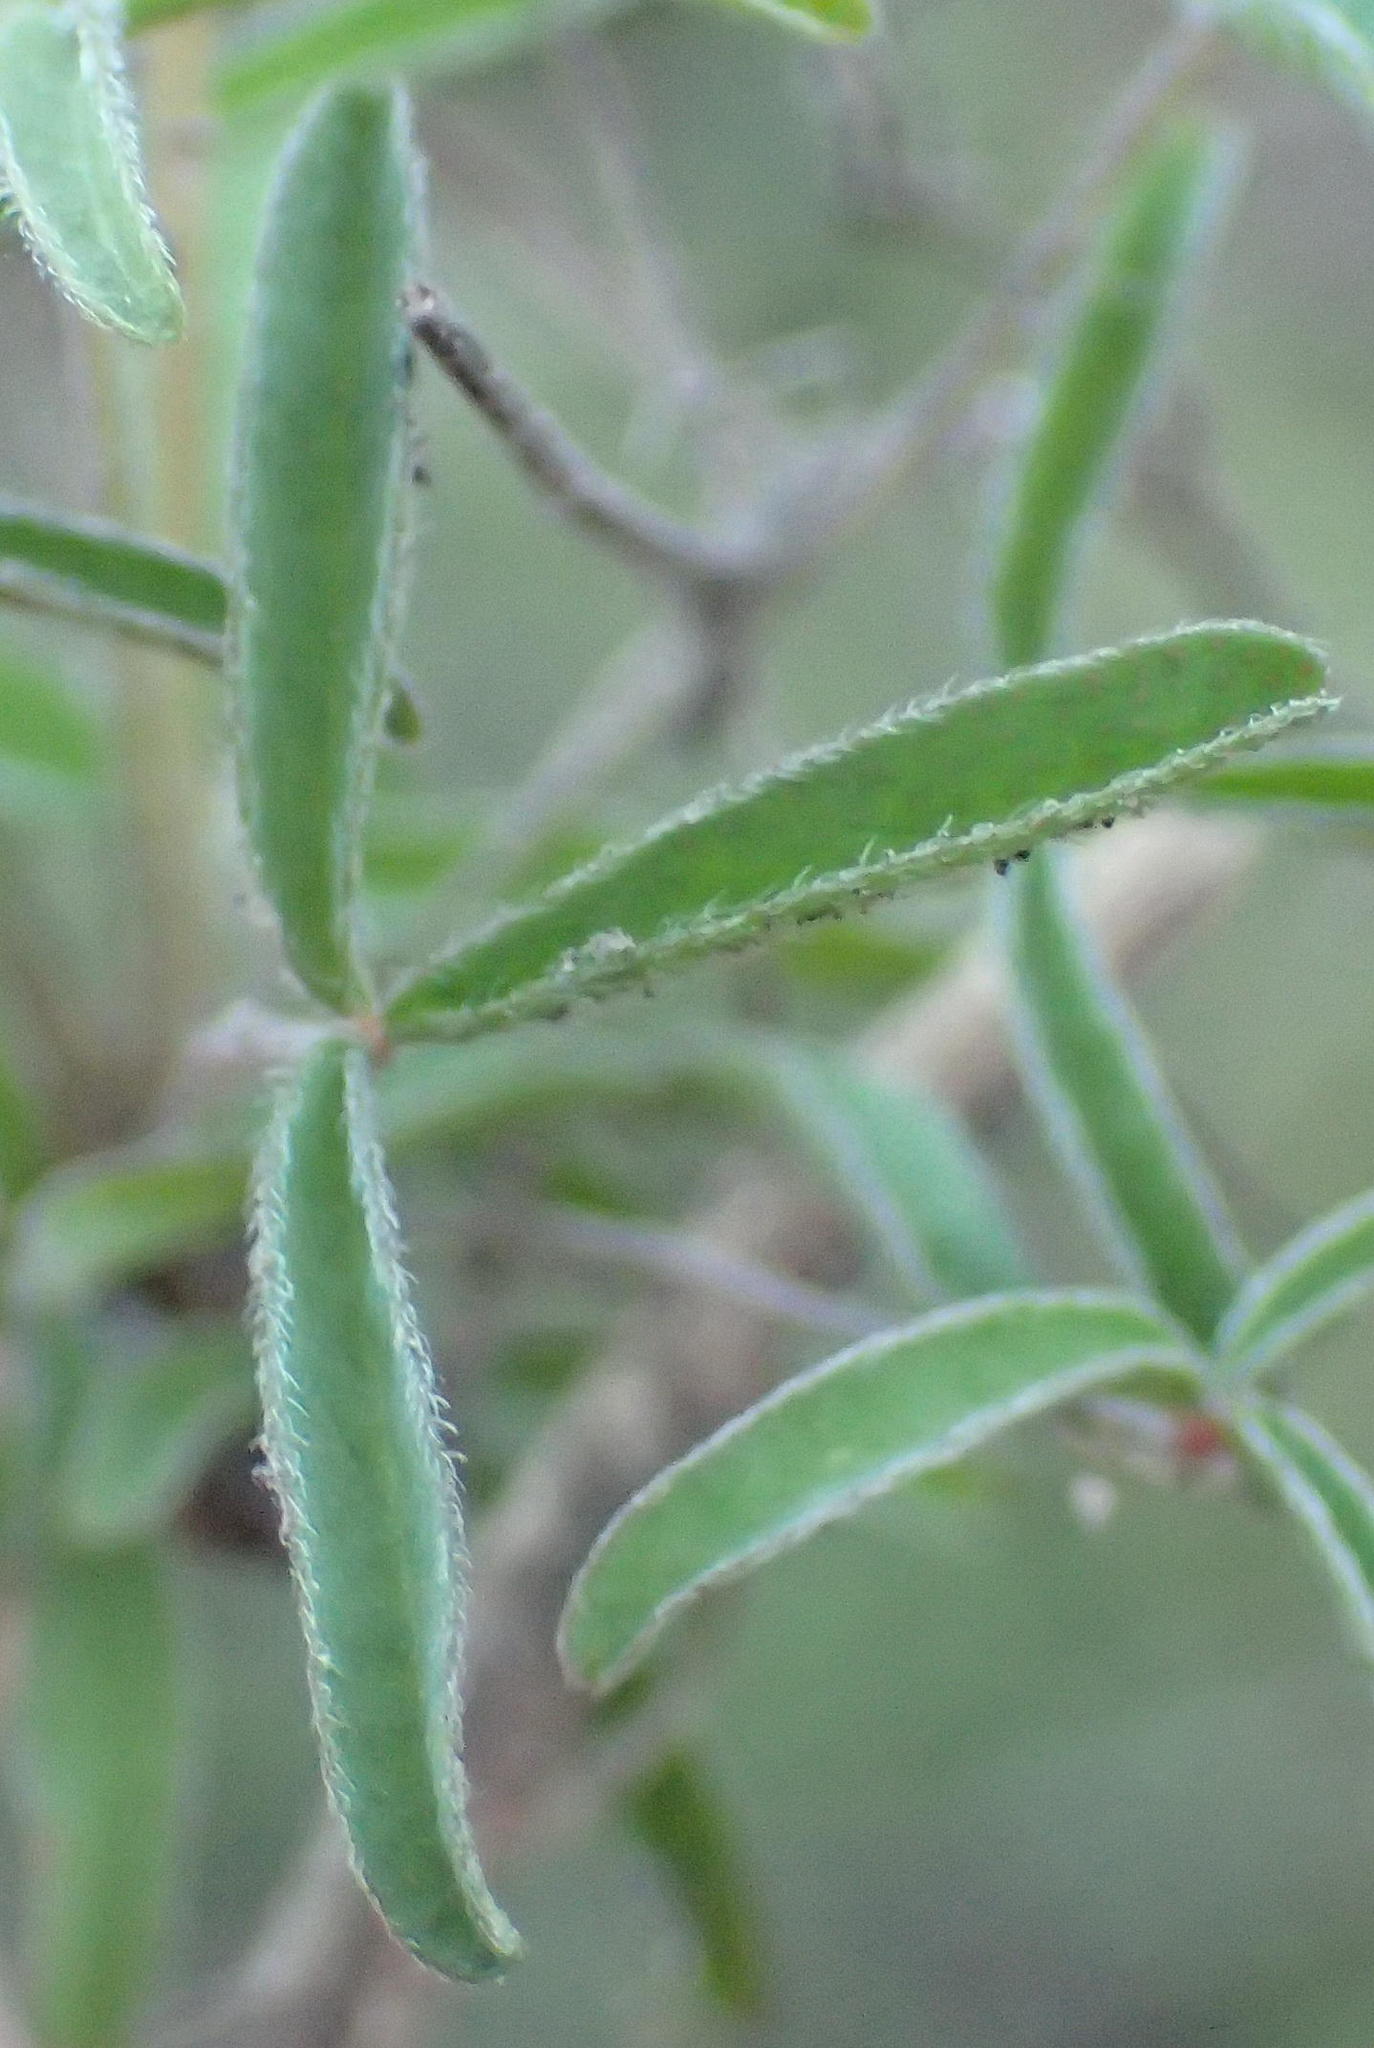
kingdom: Plantae
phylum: Tracheophyta
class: Magnoliopsida
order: Oxalidales
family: Oxalidaceae
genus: Oxalis
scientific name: Oxalis ciliaris
